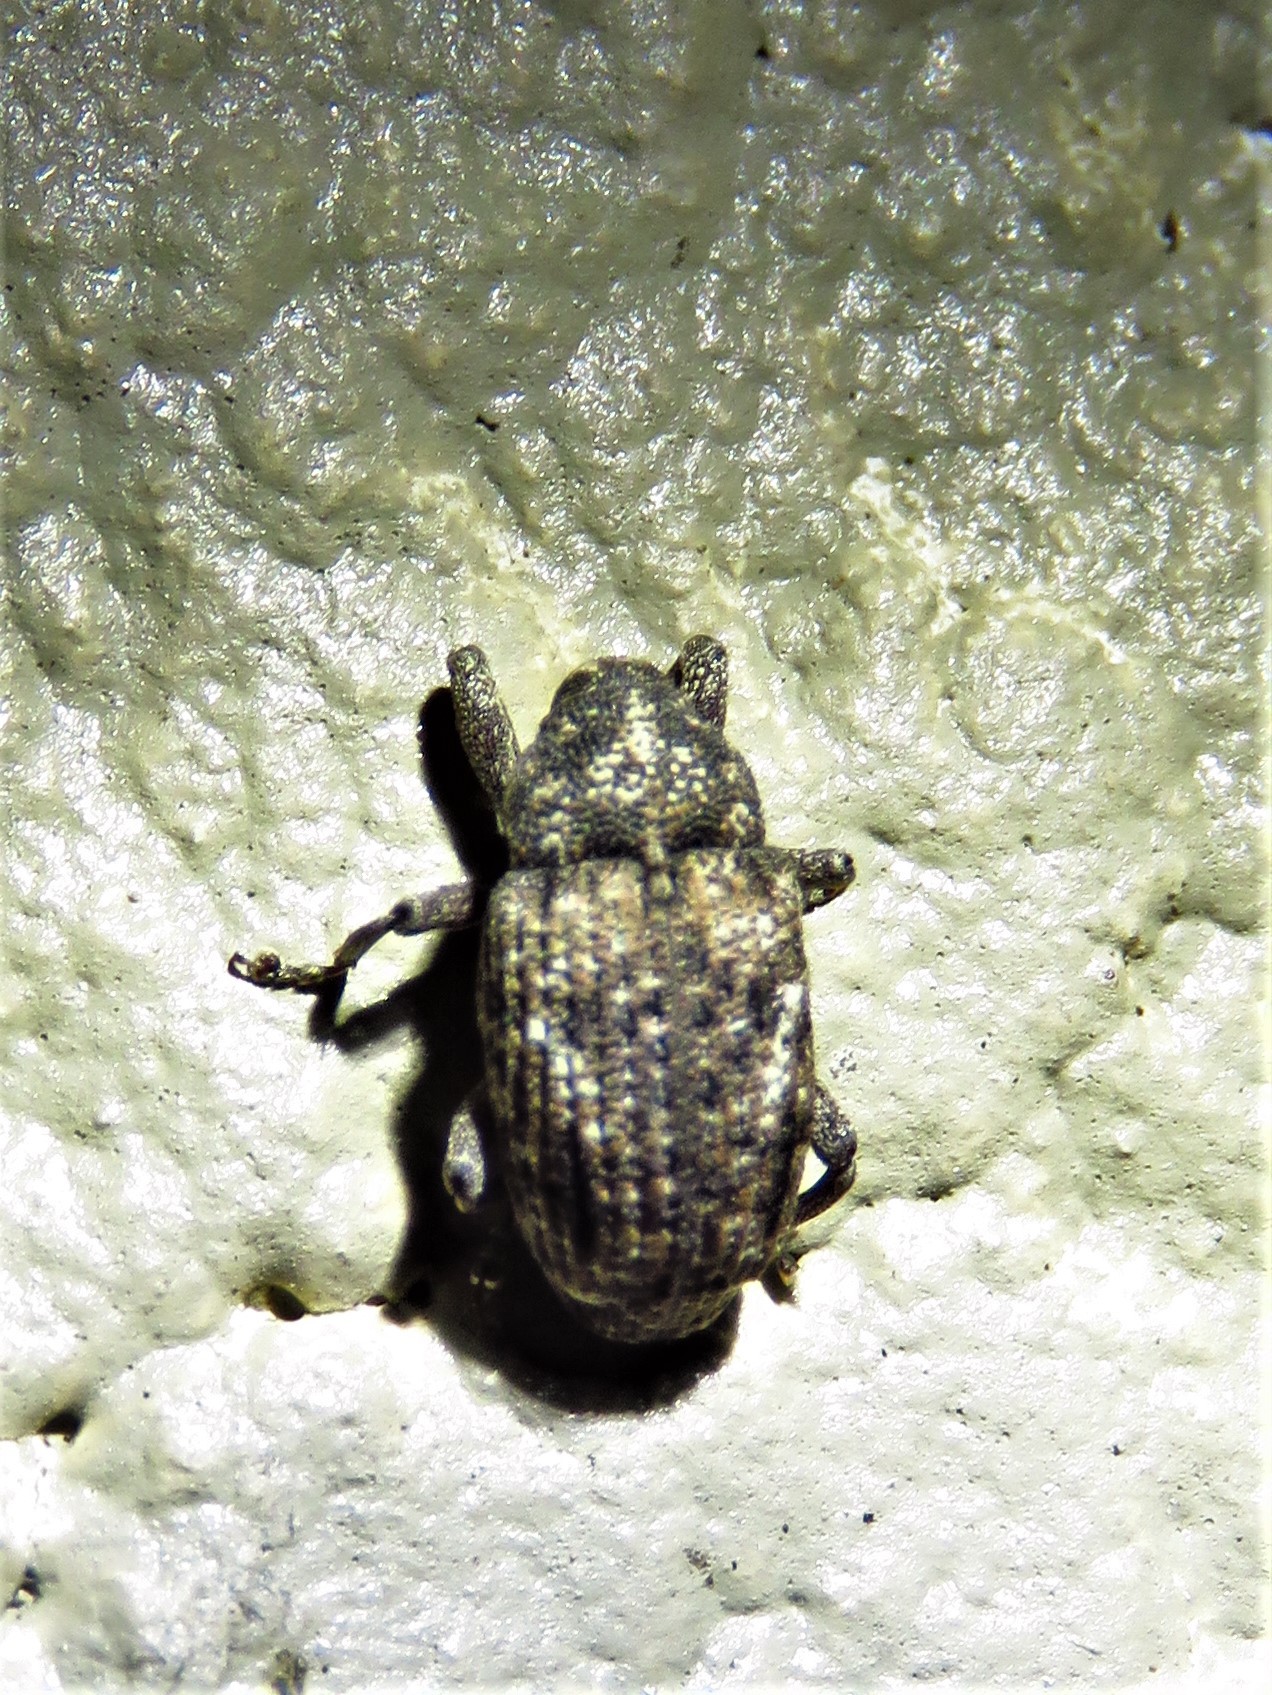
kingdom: Animalia
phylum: Arthropoda
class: Insecta
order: Coleoptera
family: Curculionidae
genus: Cophes
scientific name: Cophes oblongus
